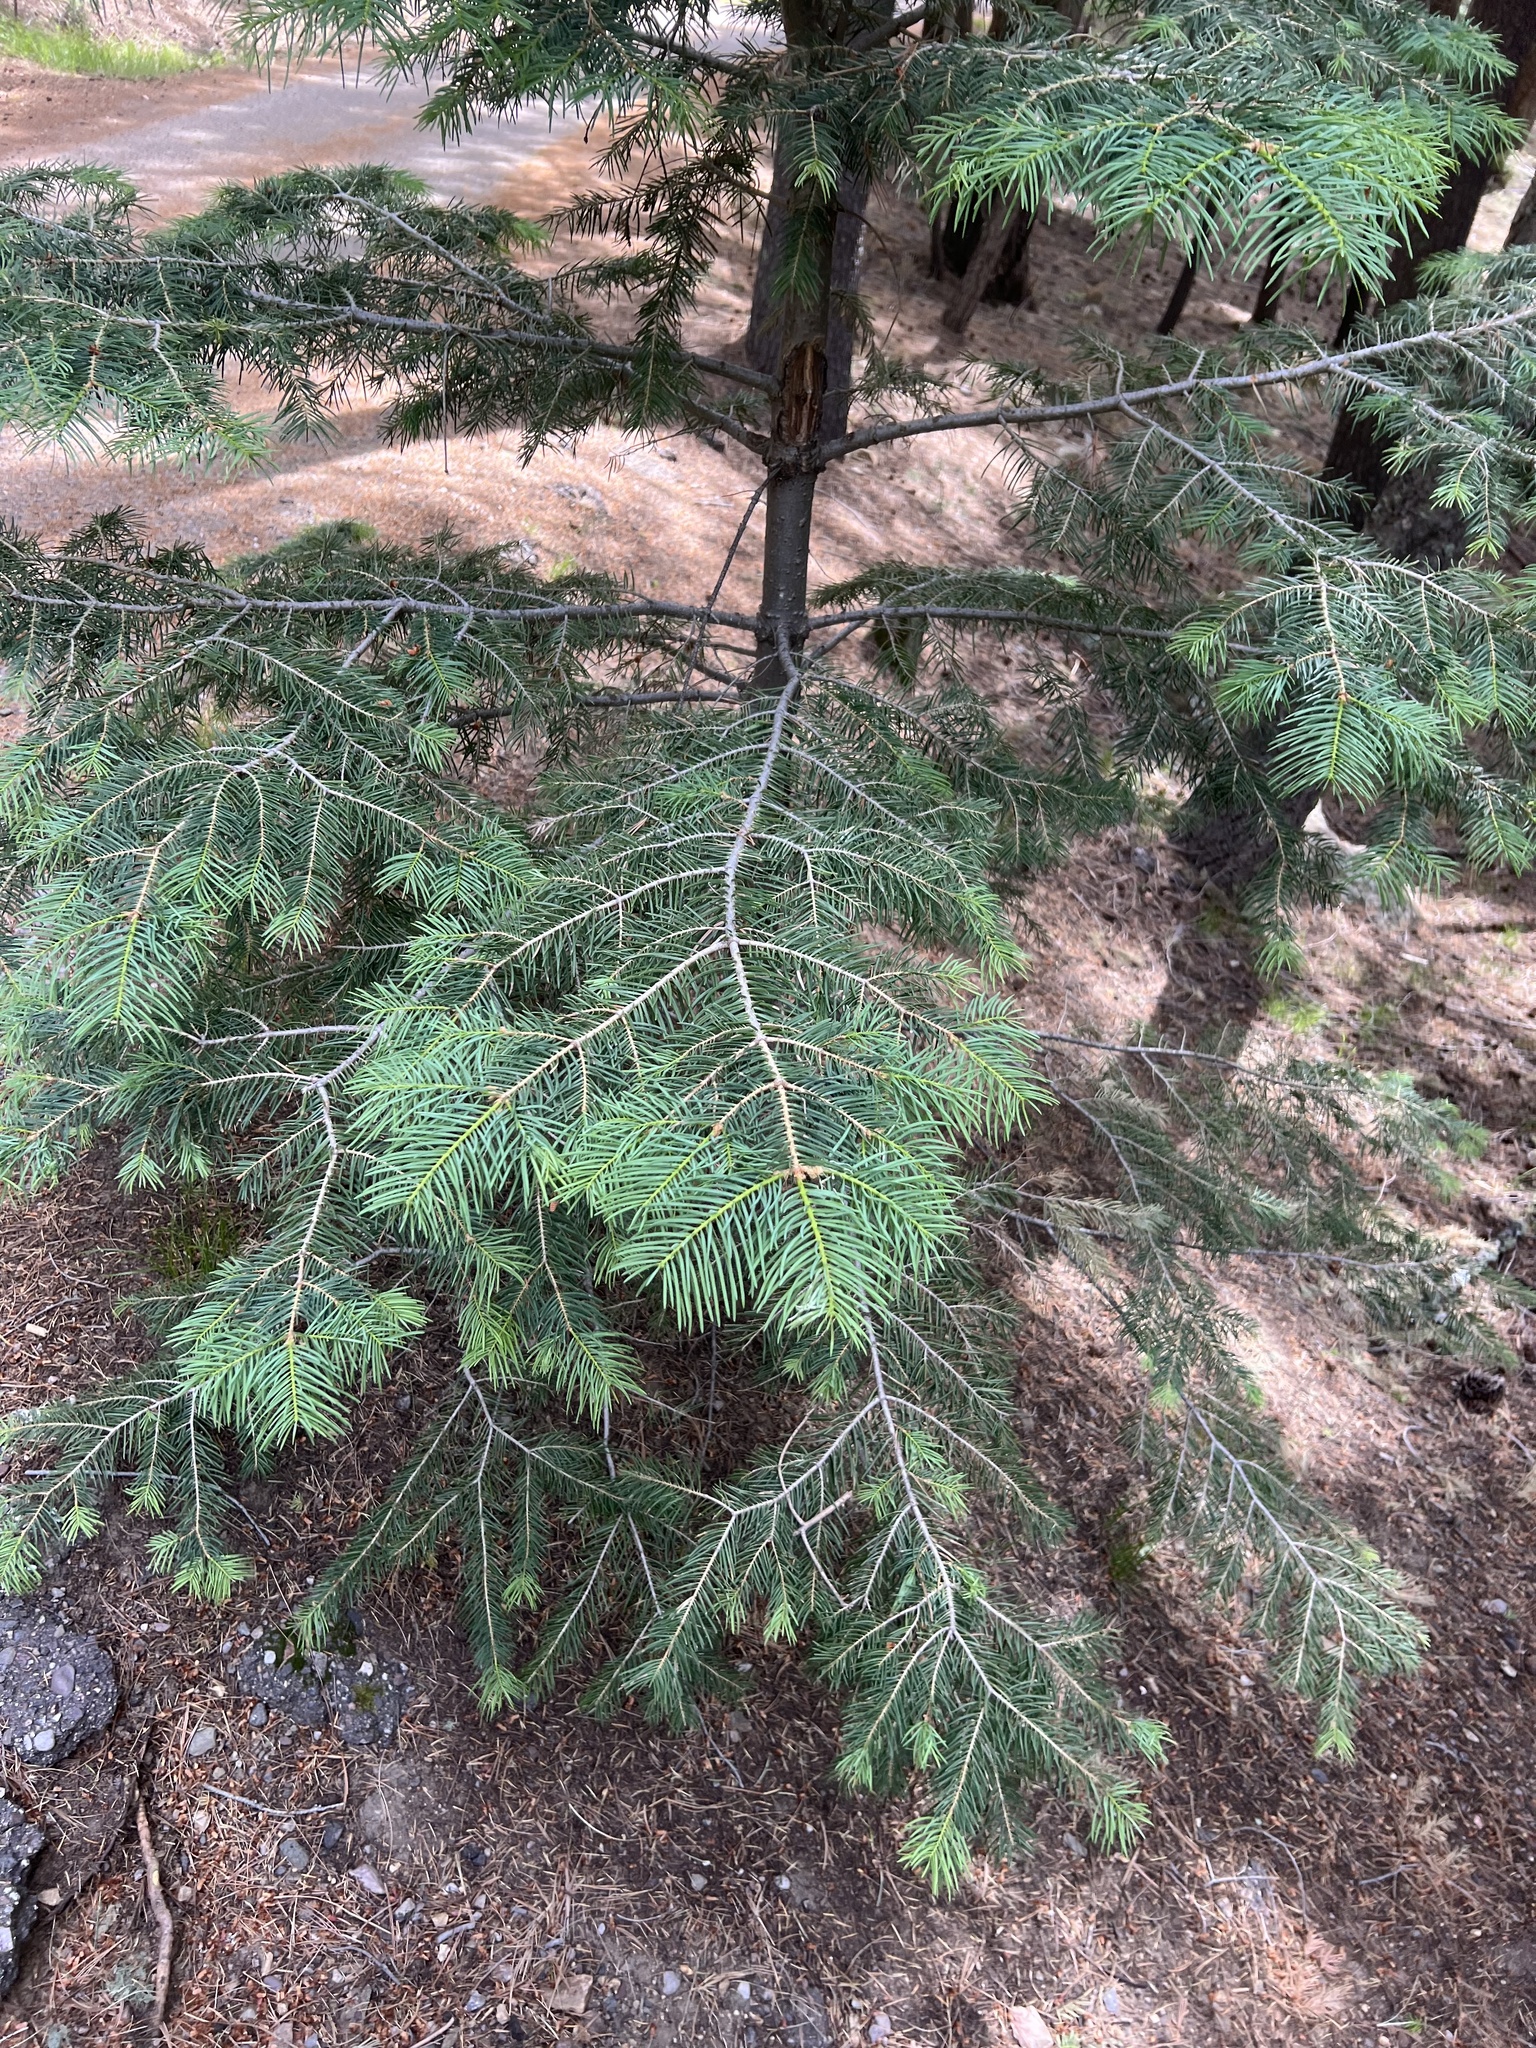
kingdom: Plantae
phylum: Tracheophyta
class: Pinopsida
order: Pinales
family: Pinaceae
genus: Abies
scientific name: Abies concolor
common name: Colorado fir
